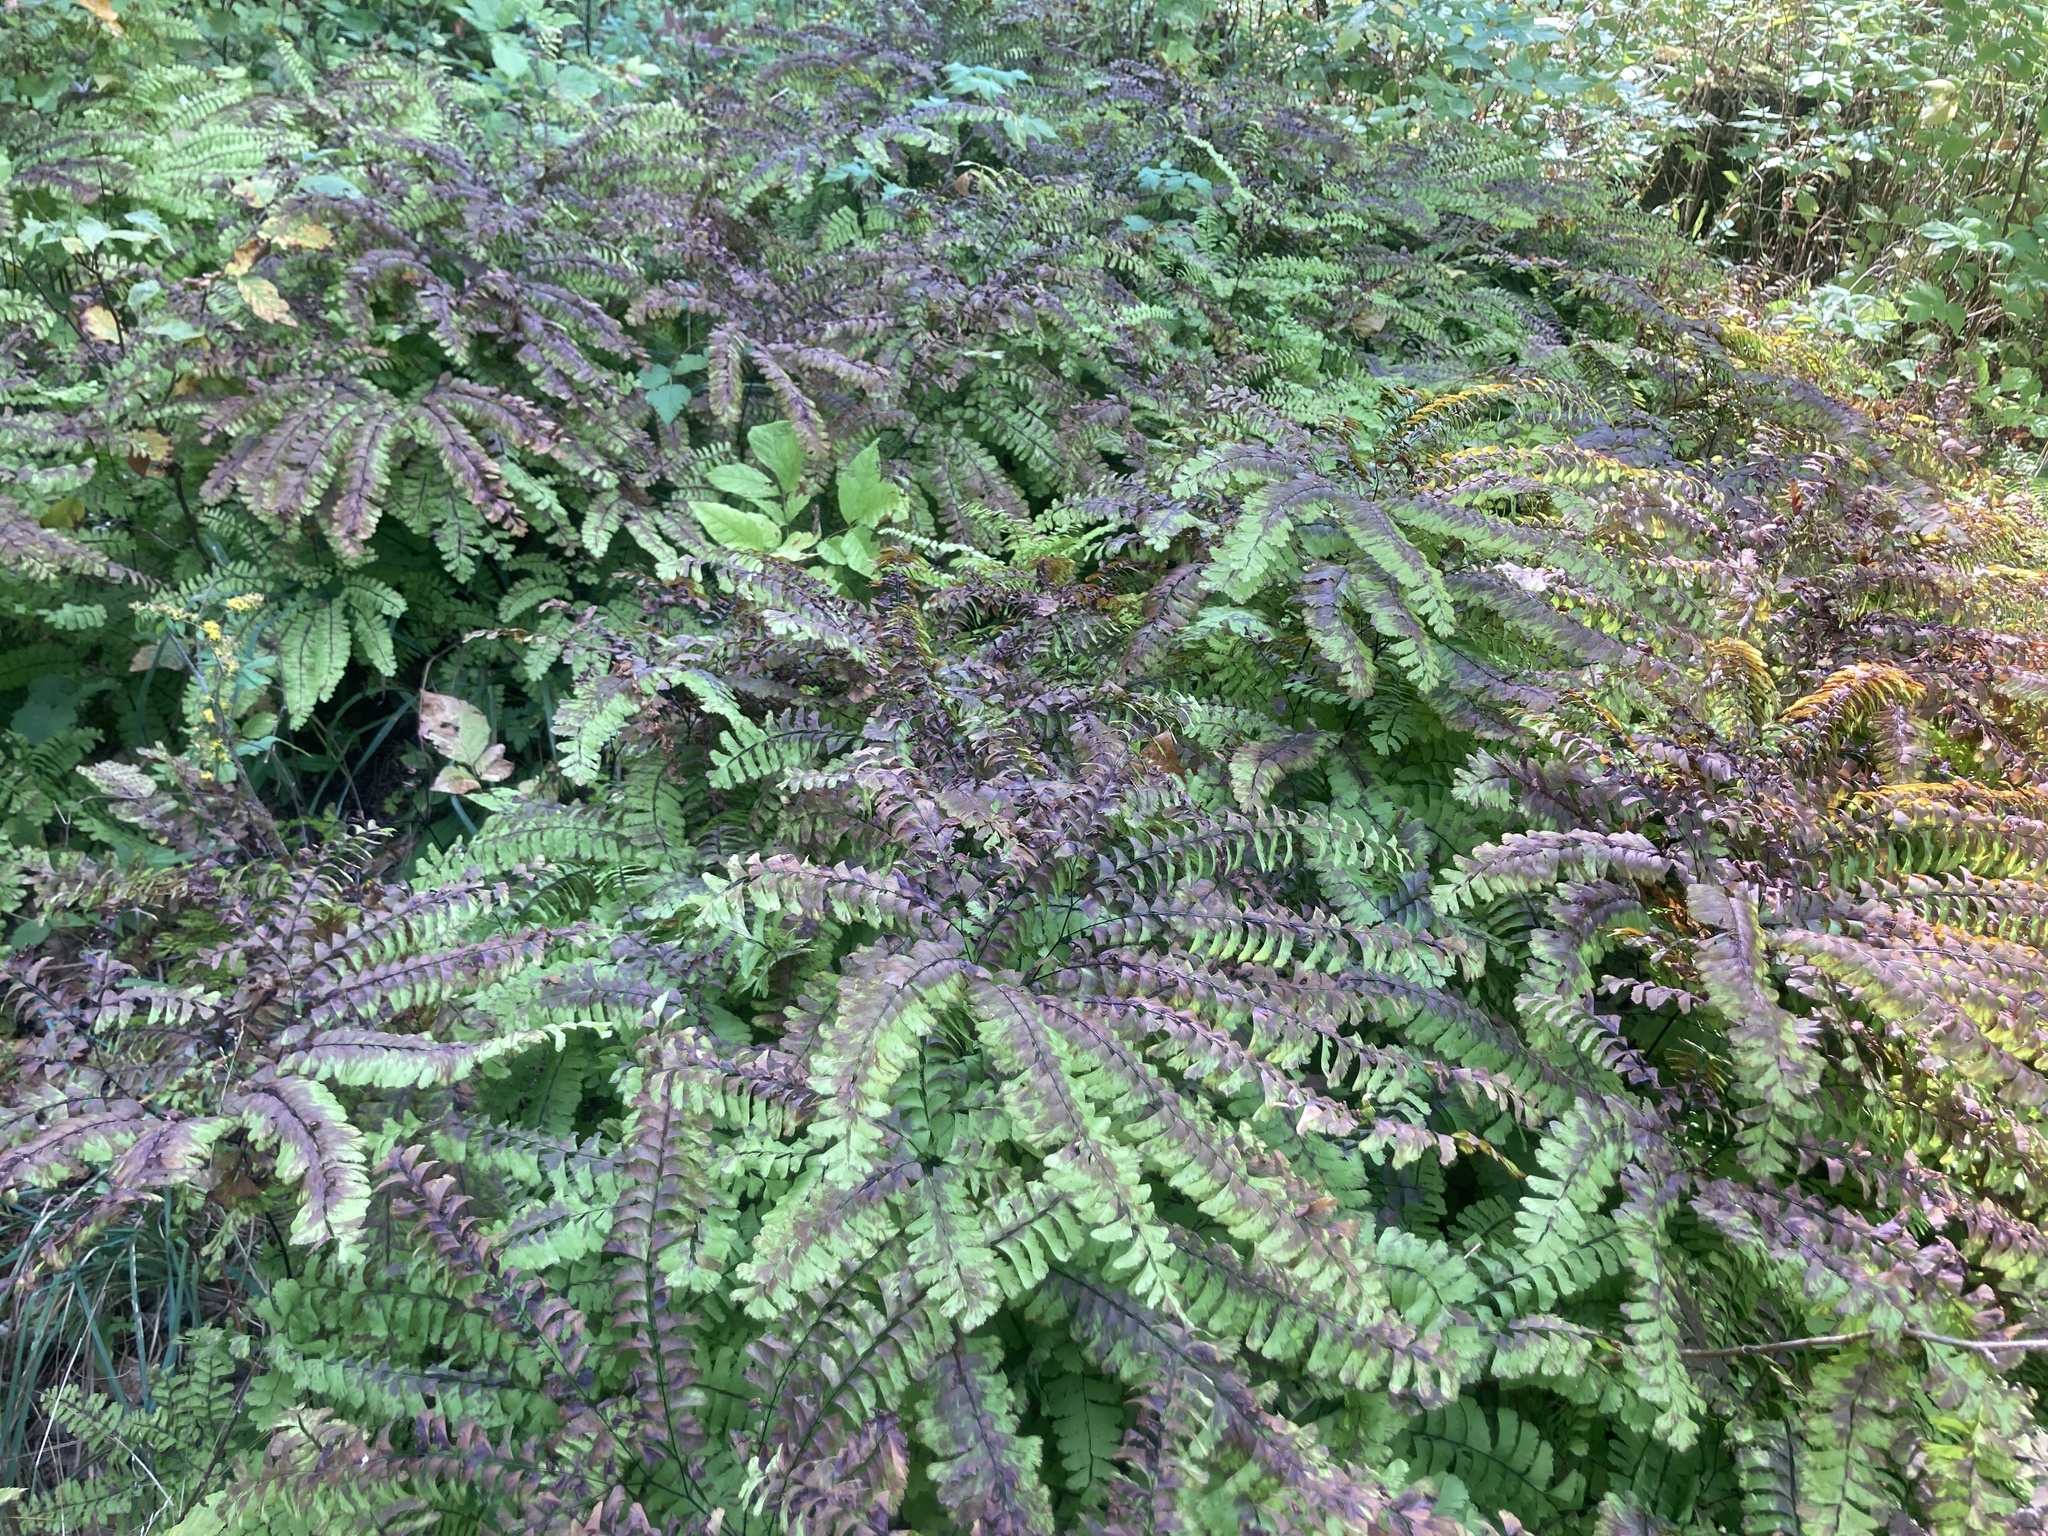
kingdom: Plantae
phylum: Tracheophyta
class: Polypodiopsida
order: Polypodiales
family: Pteridaceae
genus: Adiantum
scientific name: Adiantum pedatum
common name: Five-finger fern
